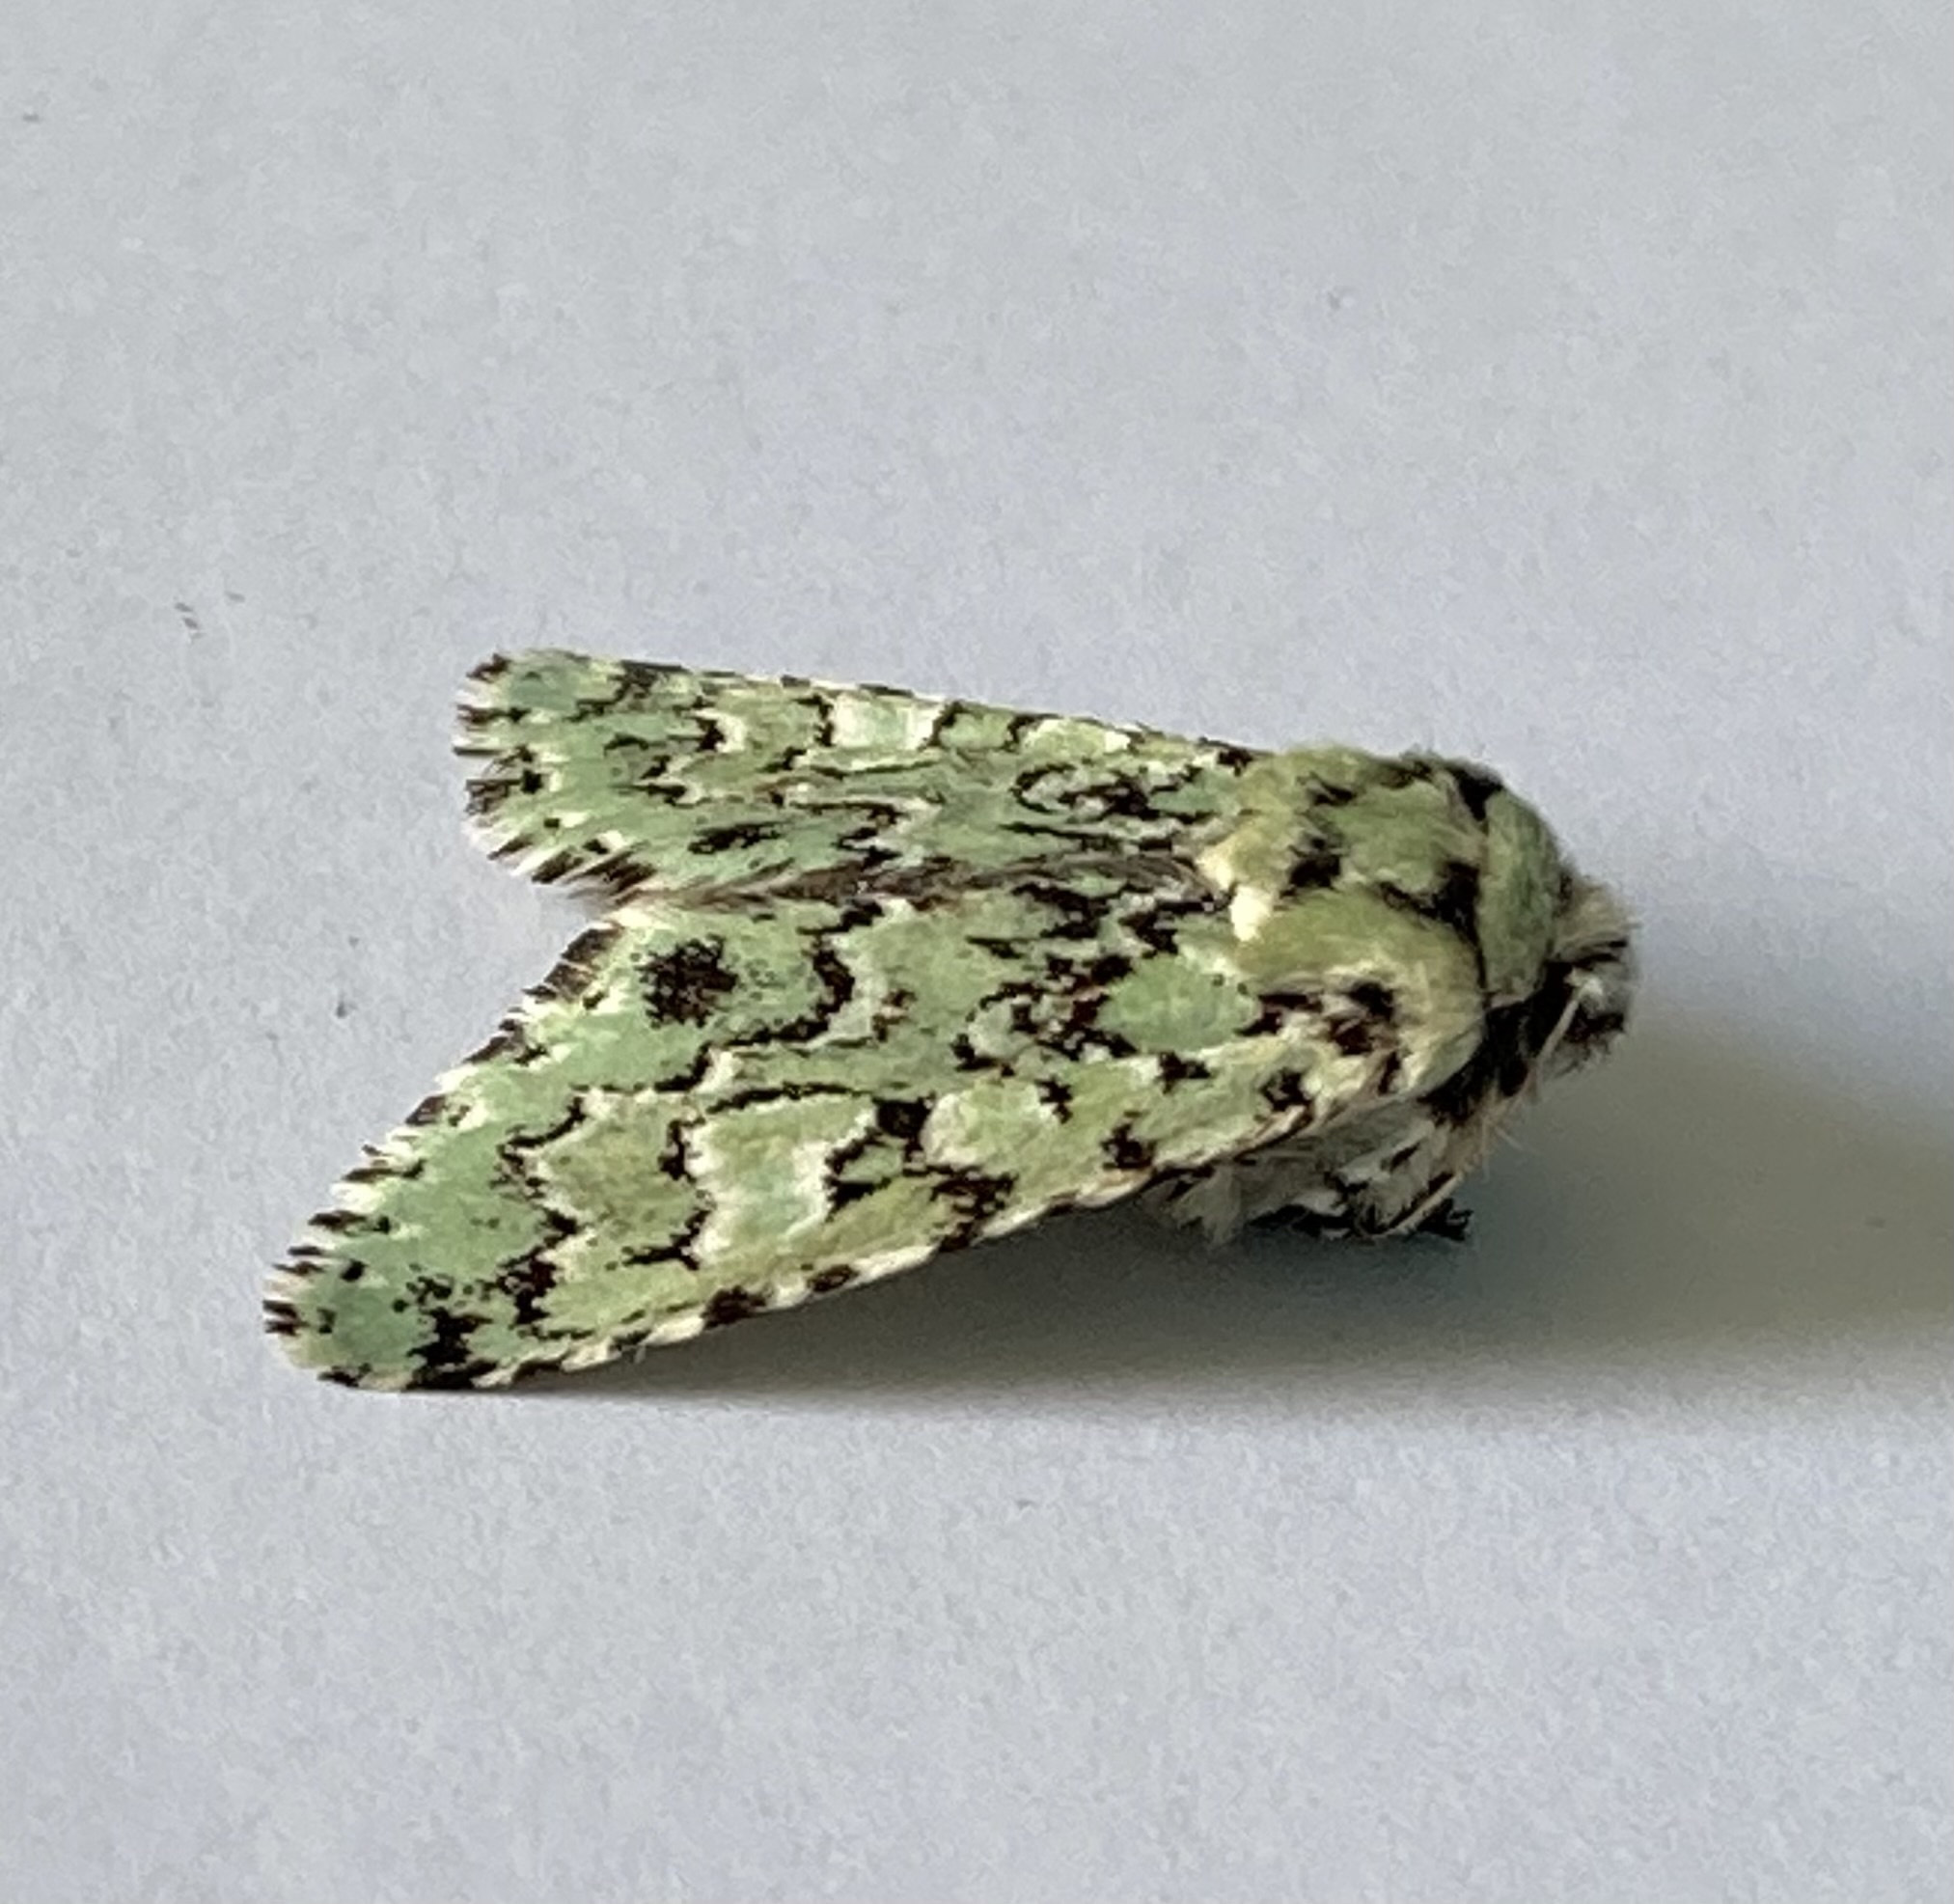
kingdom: Animalia
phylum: Arthropoda
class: Insecta
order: Lepidoptera
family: Noctuidae
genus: Feralia
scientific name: Feralia jocosa
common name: Joker
